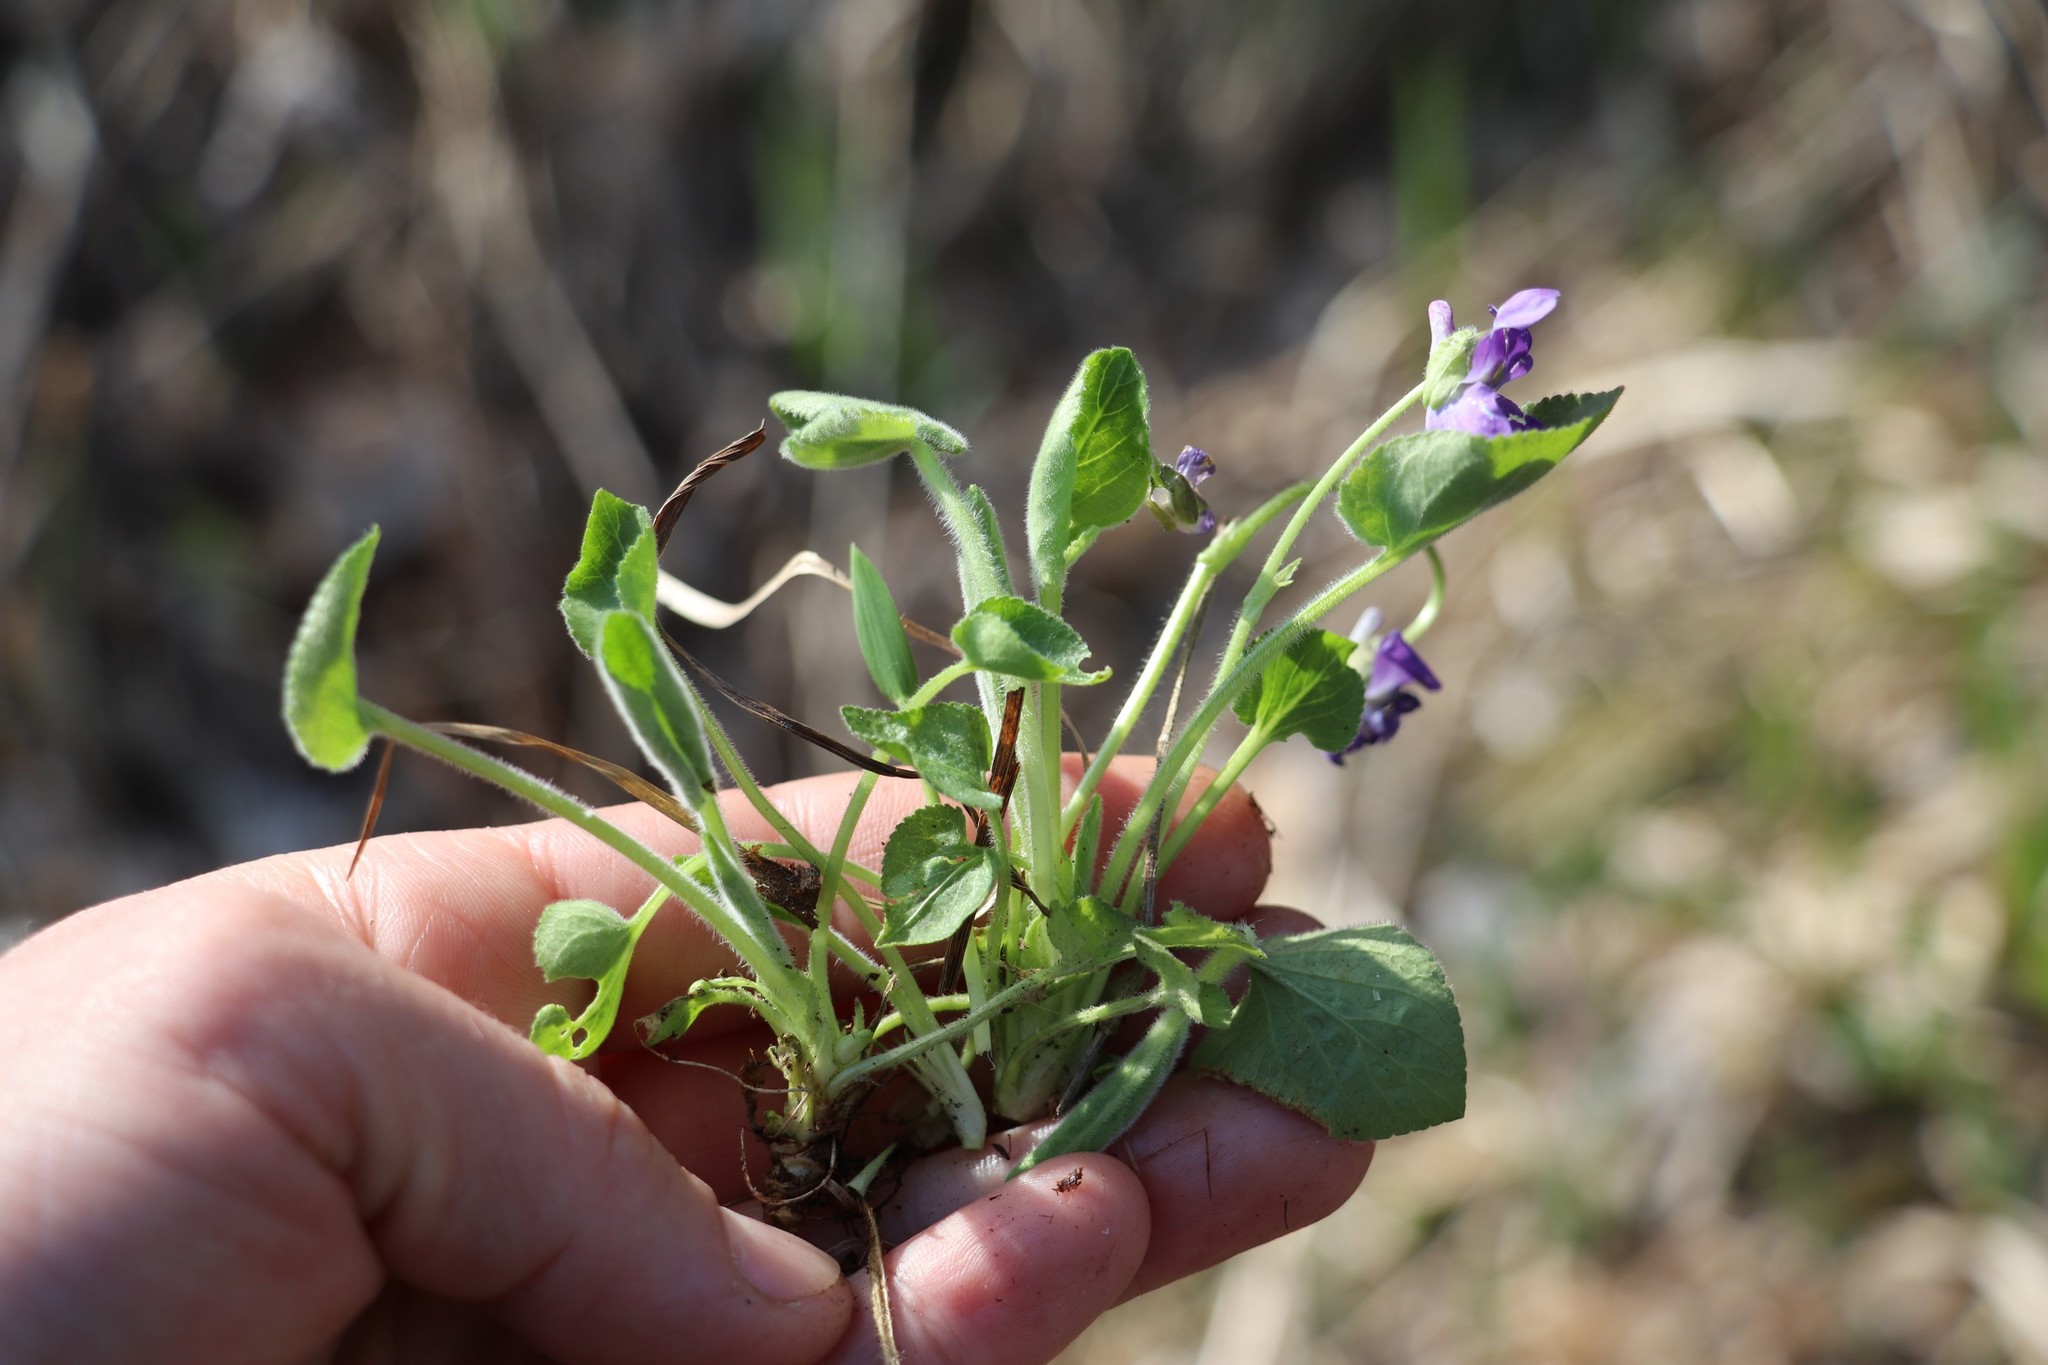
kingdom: Plantae
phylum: Tracheophyta
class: Magnoliopsida
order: Malpighiales
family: Violaceae
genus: Viola
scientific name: Viola hirta
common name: Hairy violet
